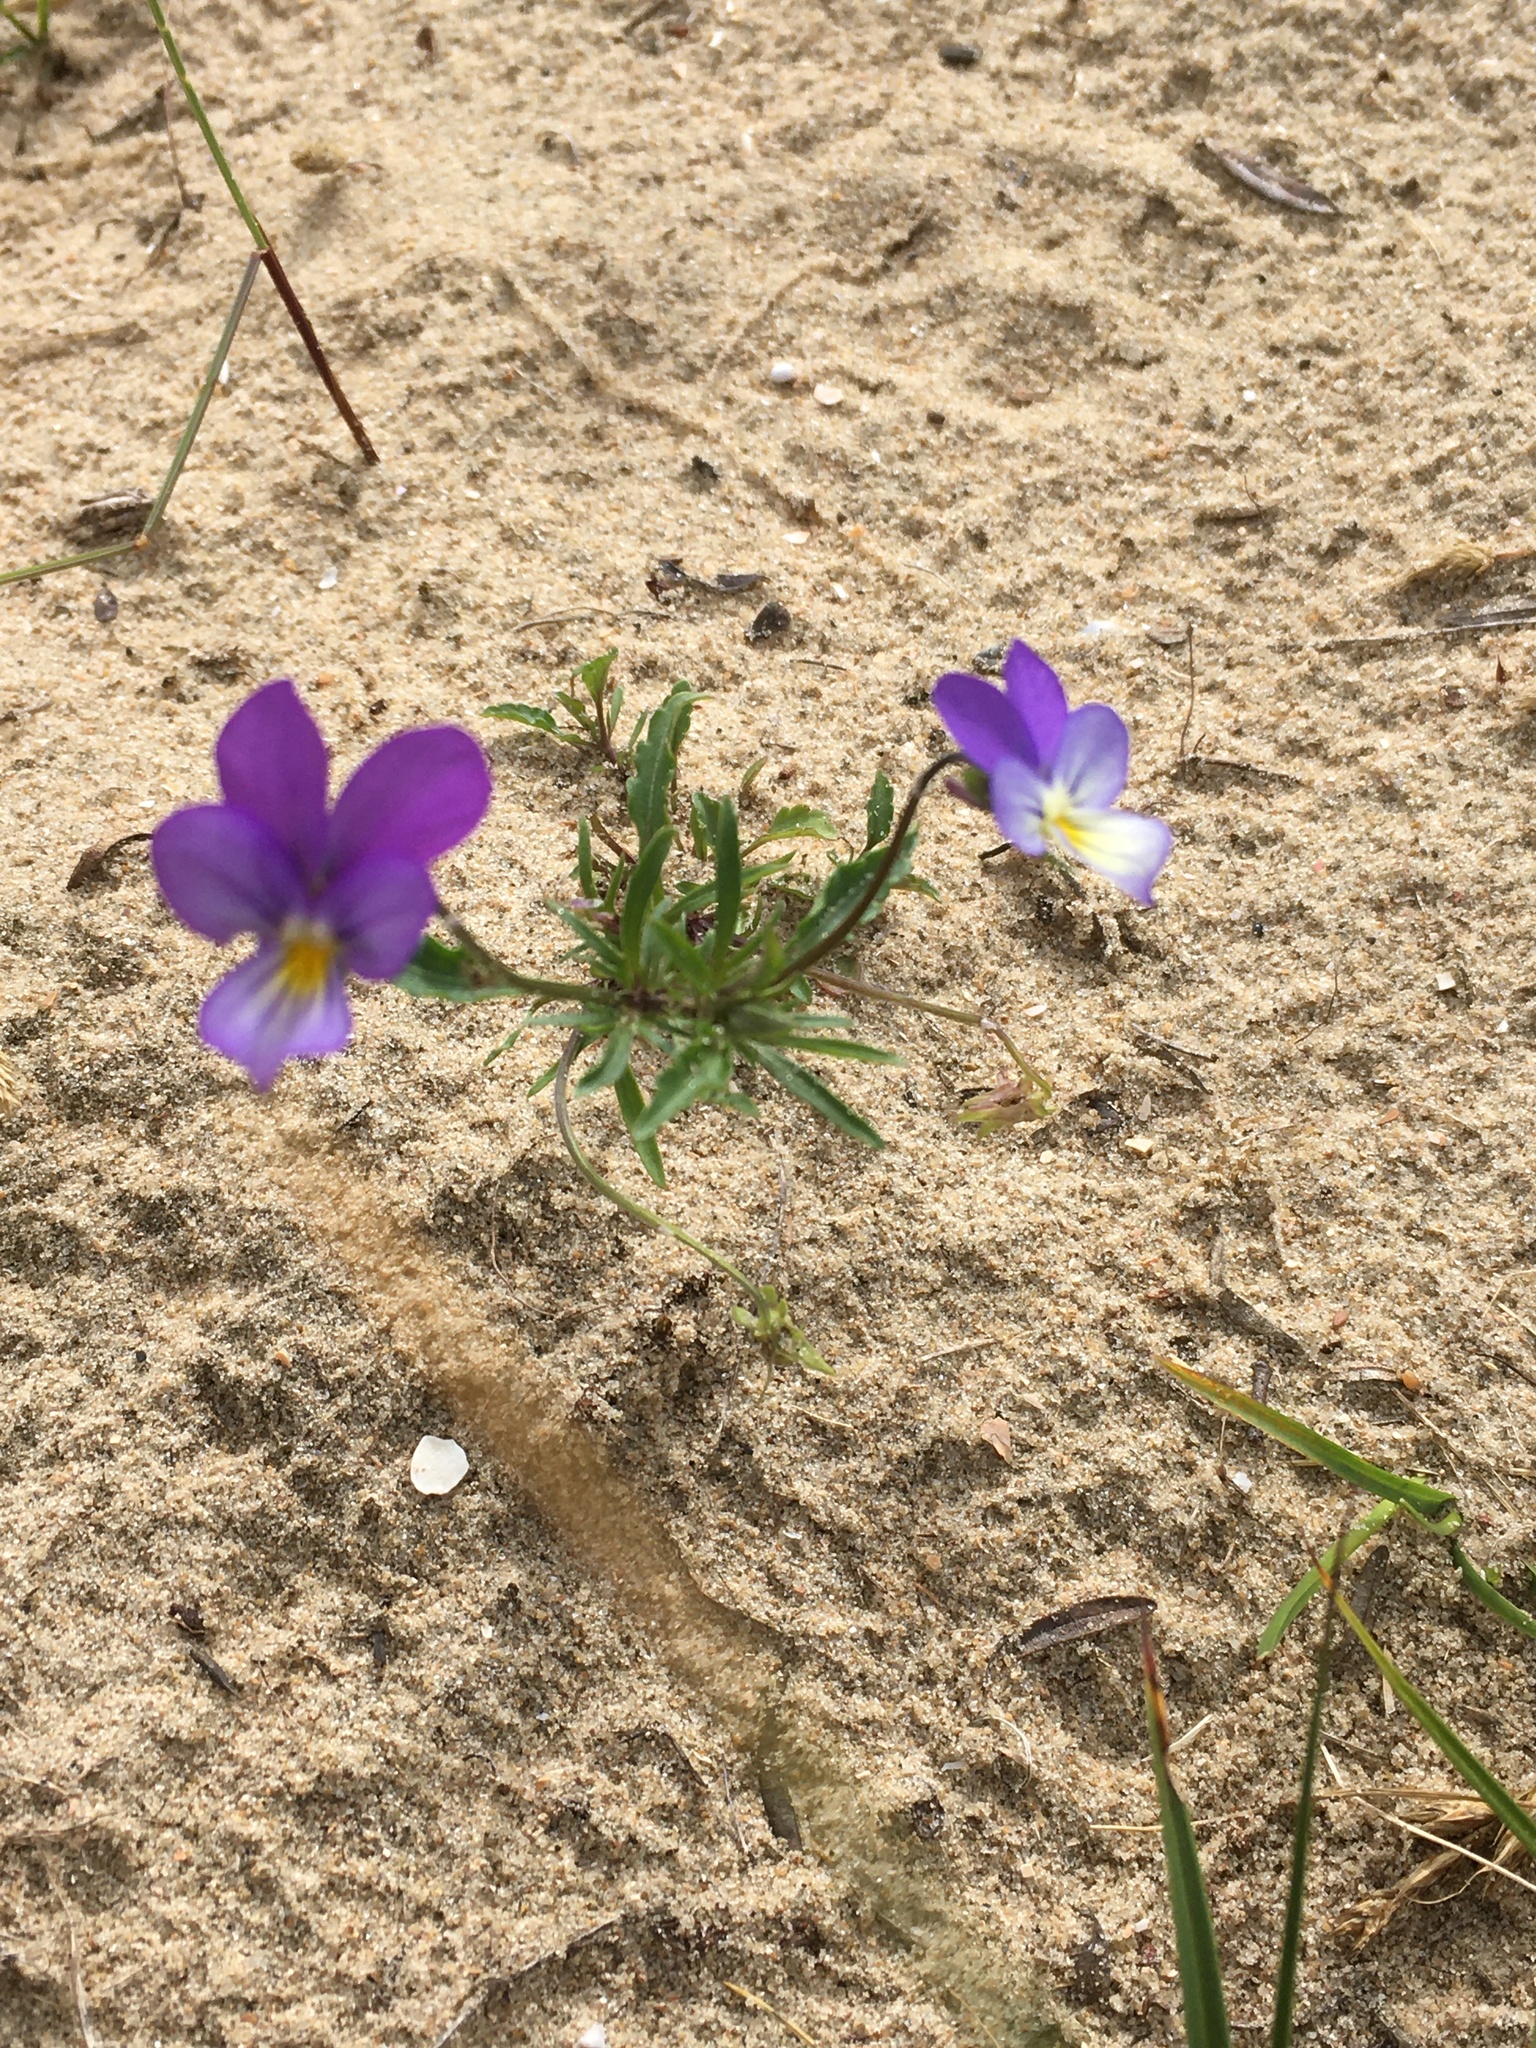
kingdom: Plantae
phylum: Tracheophyta
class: Magnoliopsida
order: Malpighiales
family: Violaceae
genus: Viola
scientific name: Viola tricolor
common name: Pansy
